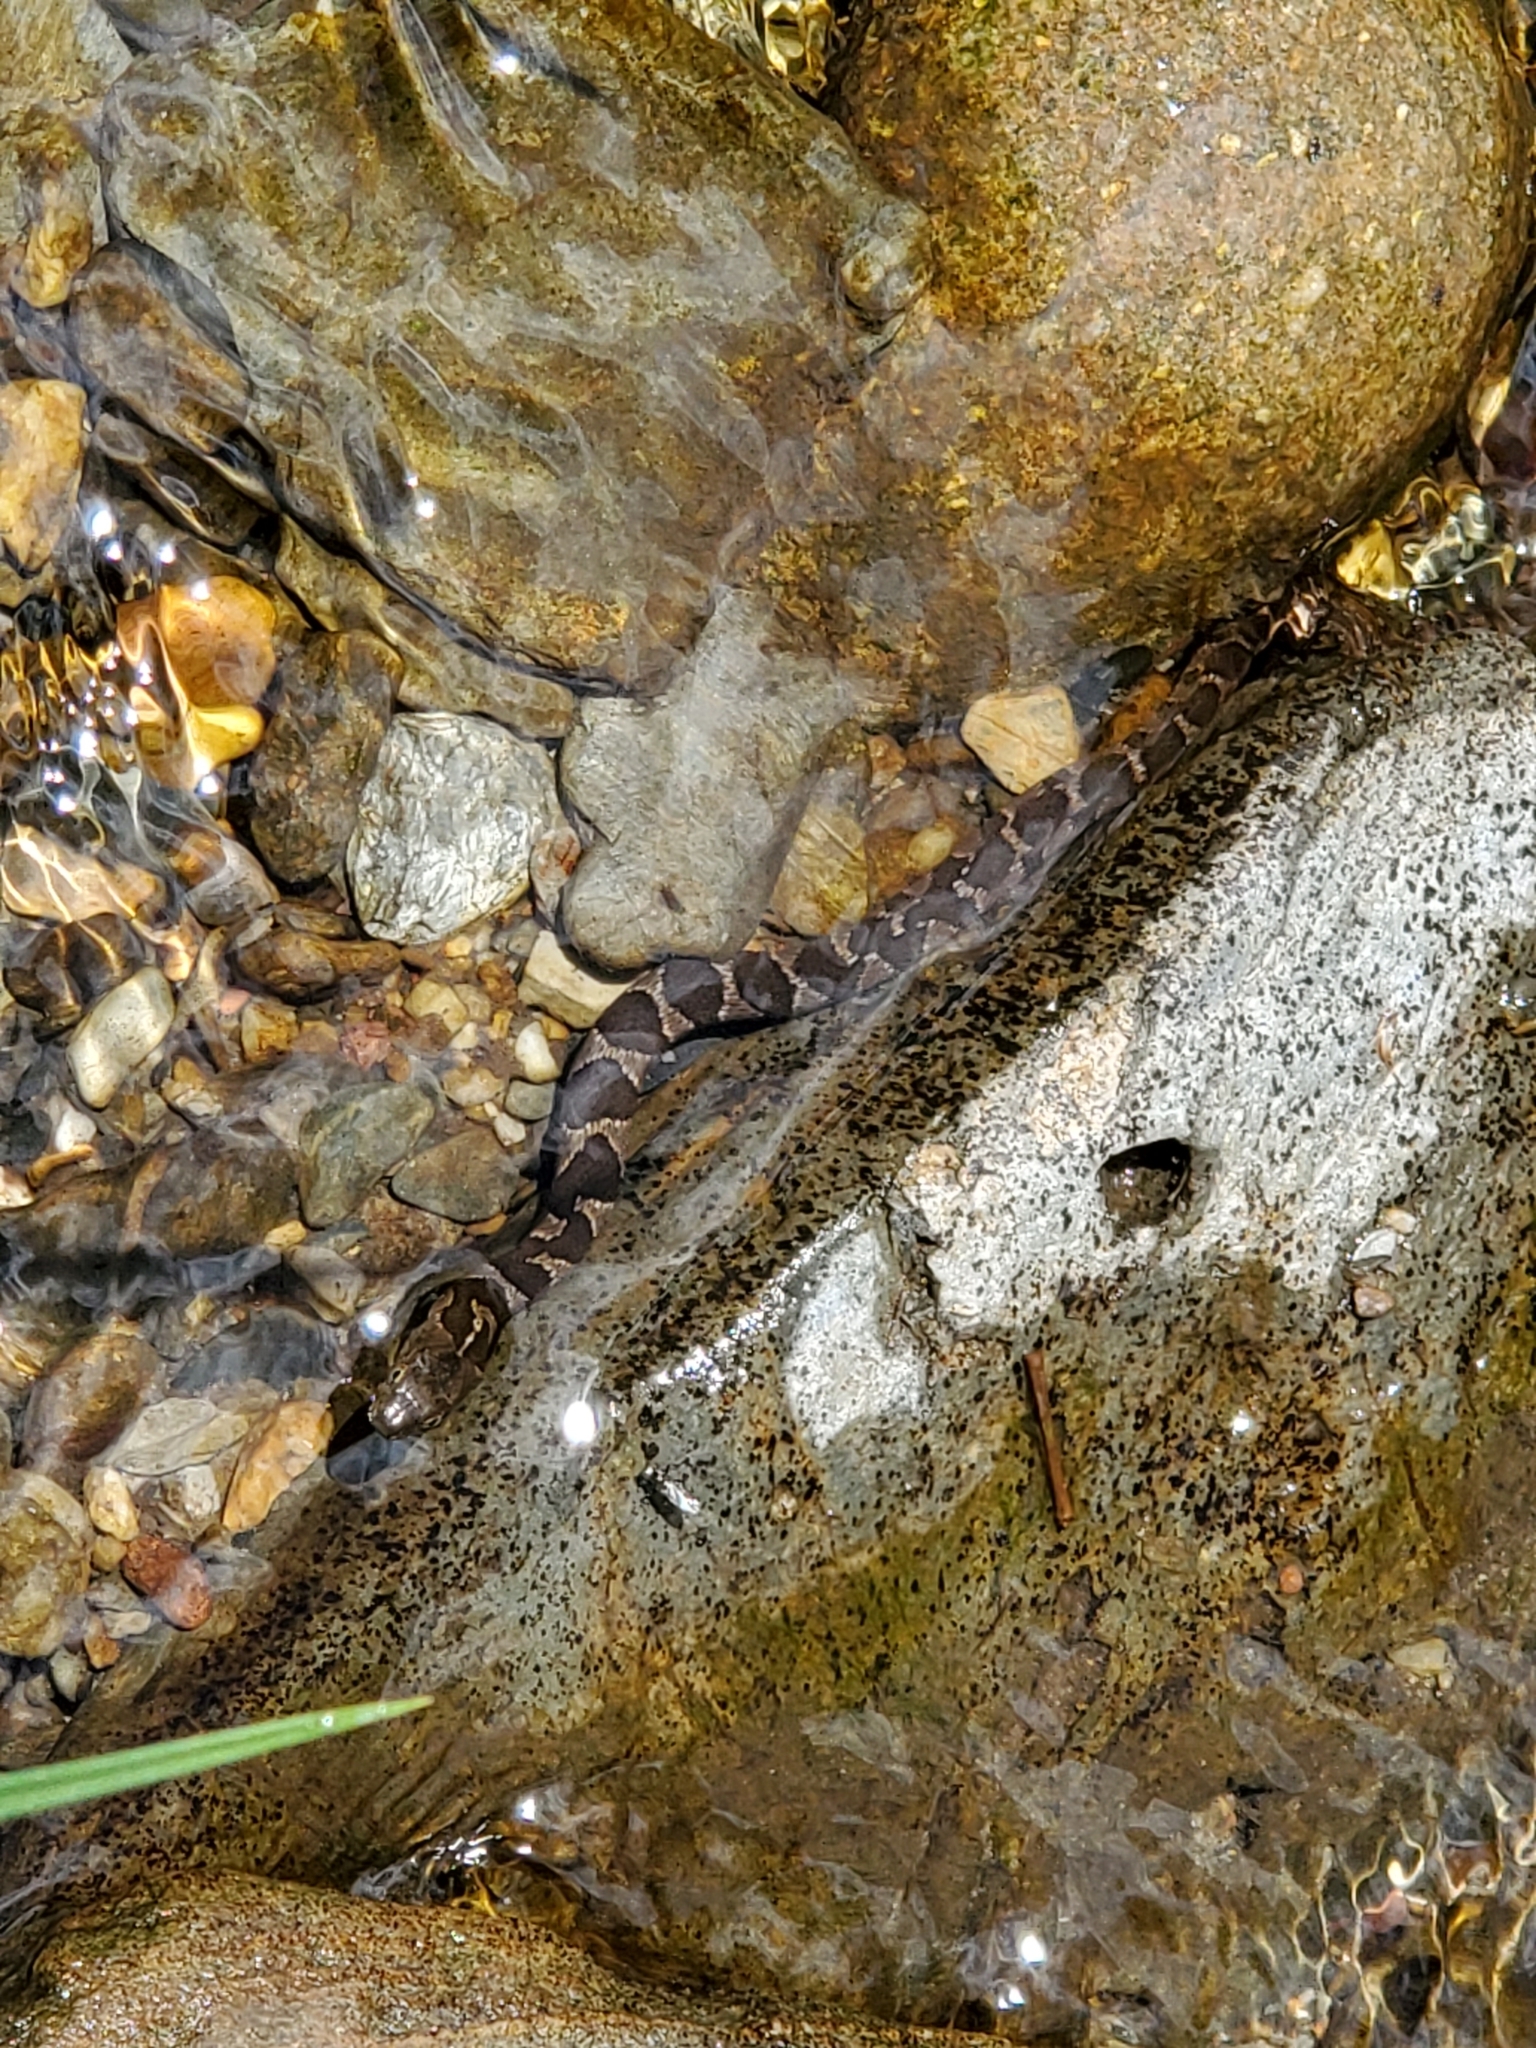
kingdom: Animalia
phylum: Chordata
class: Squamata
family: Colubridae
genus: Nerodia
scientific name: Nerodia sipedon
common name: Northern water snake
